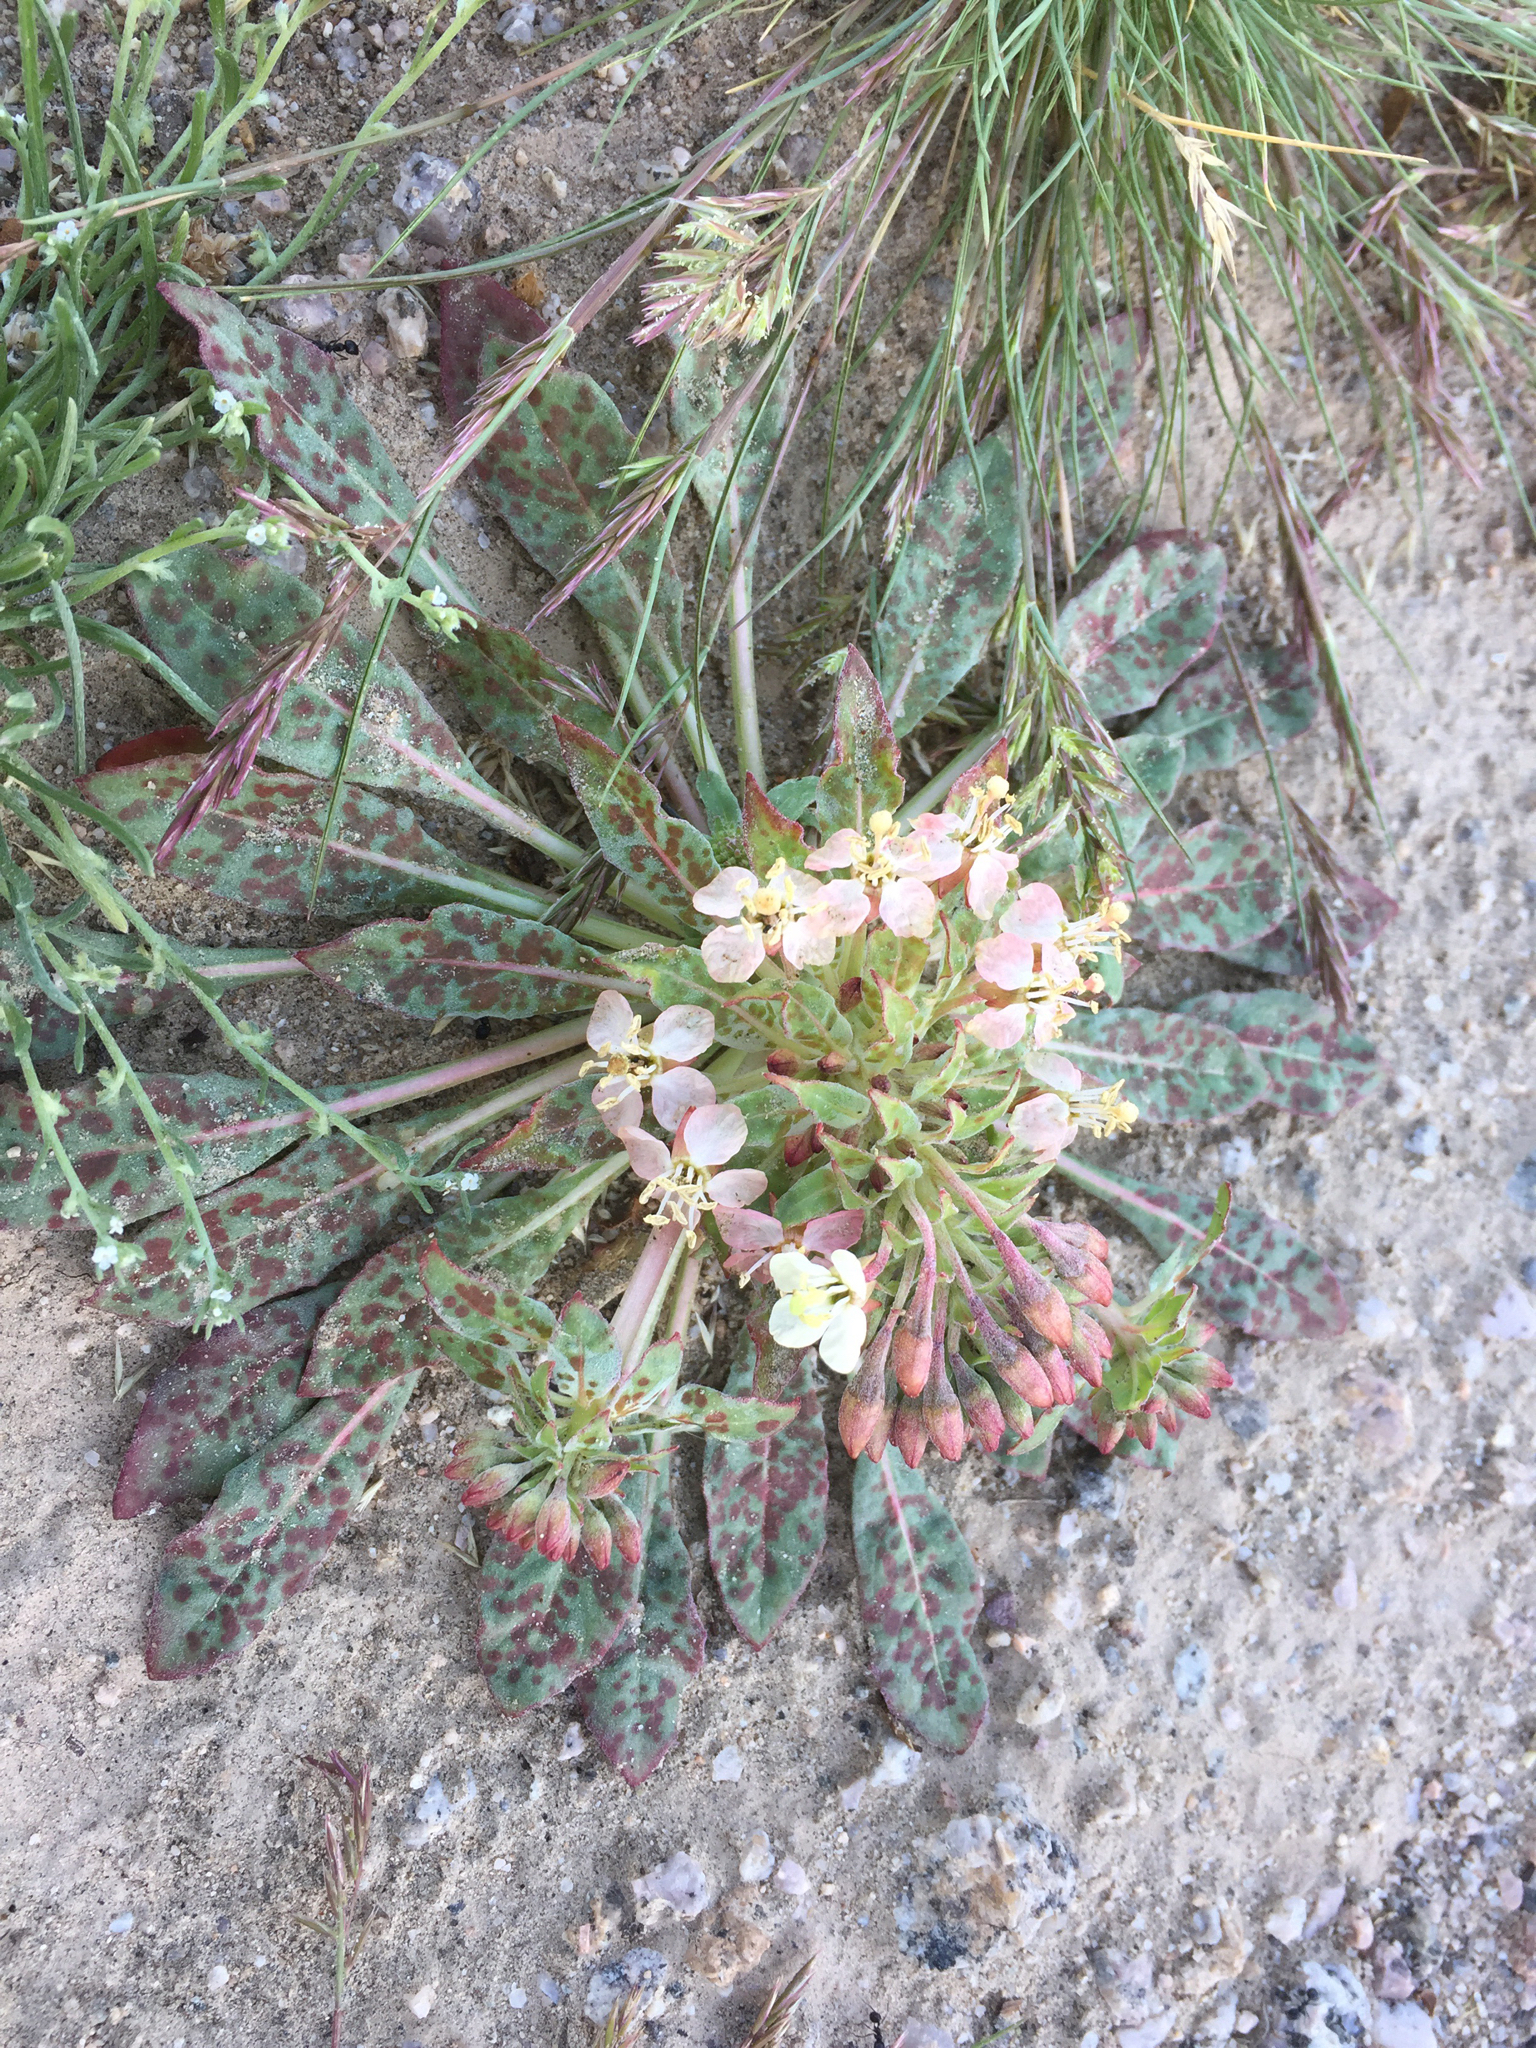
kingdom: Plantae
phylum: Tracheophyta
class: Magnoliopsida
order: Myrtales
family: Onagraceae
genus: Eremothera
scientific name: Eremothera boothii
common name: Booth's evening primrose
